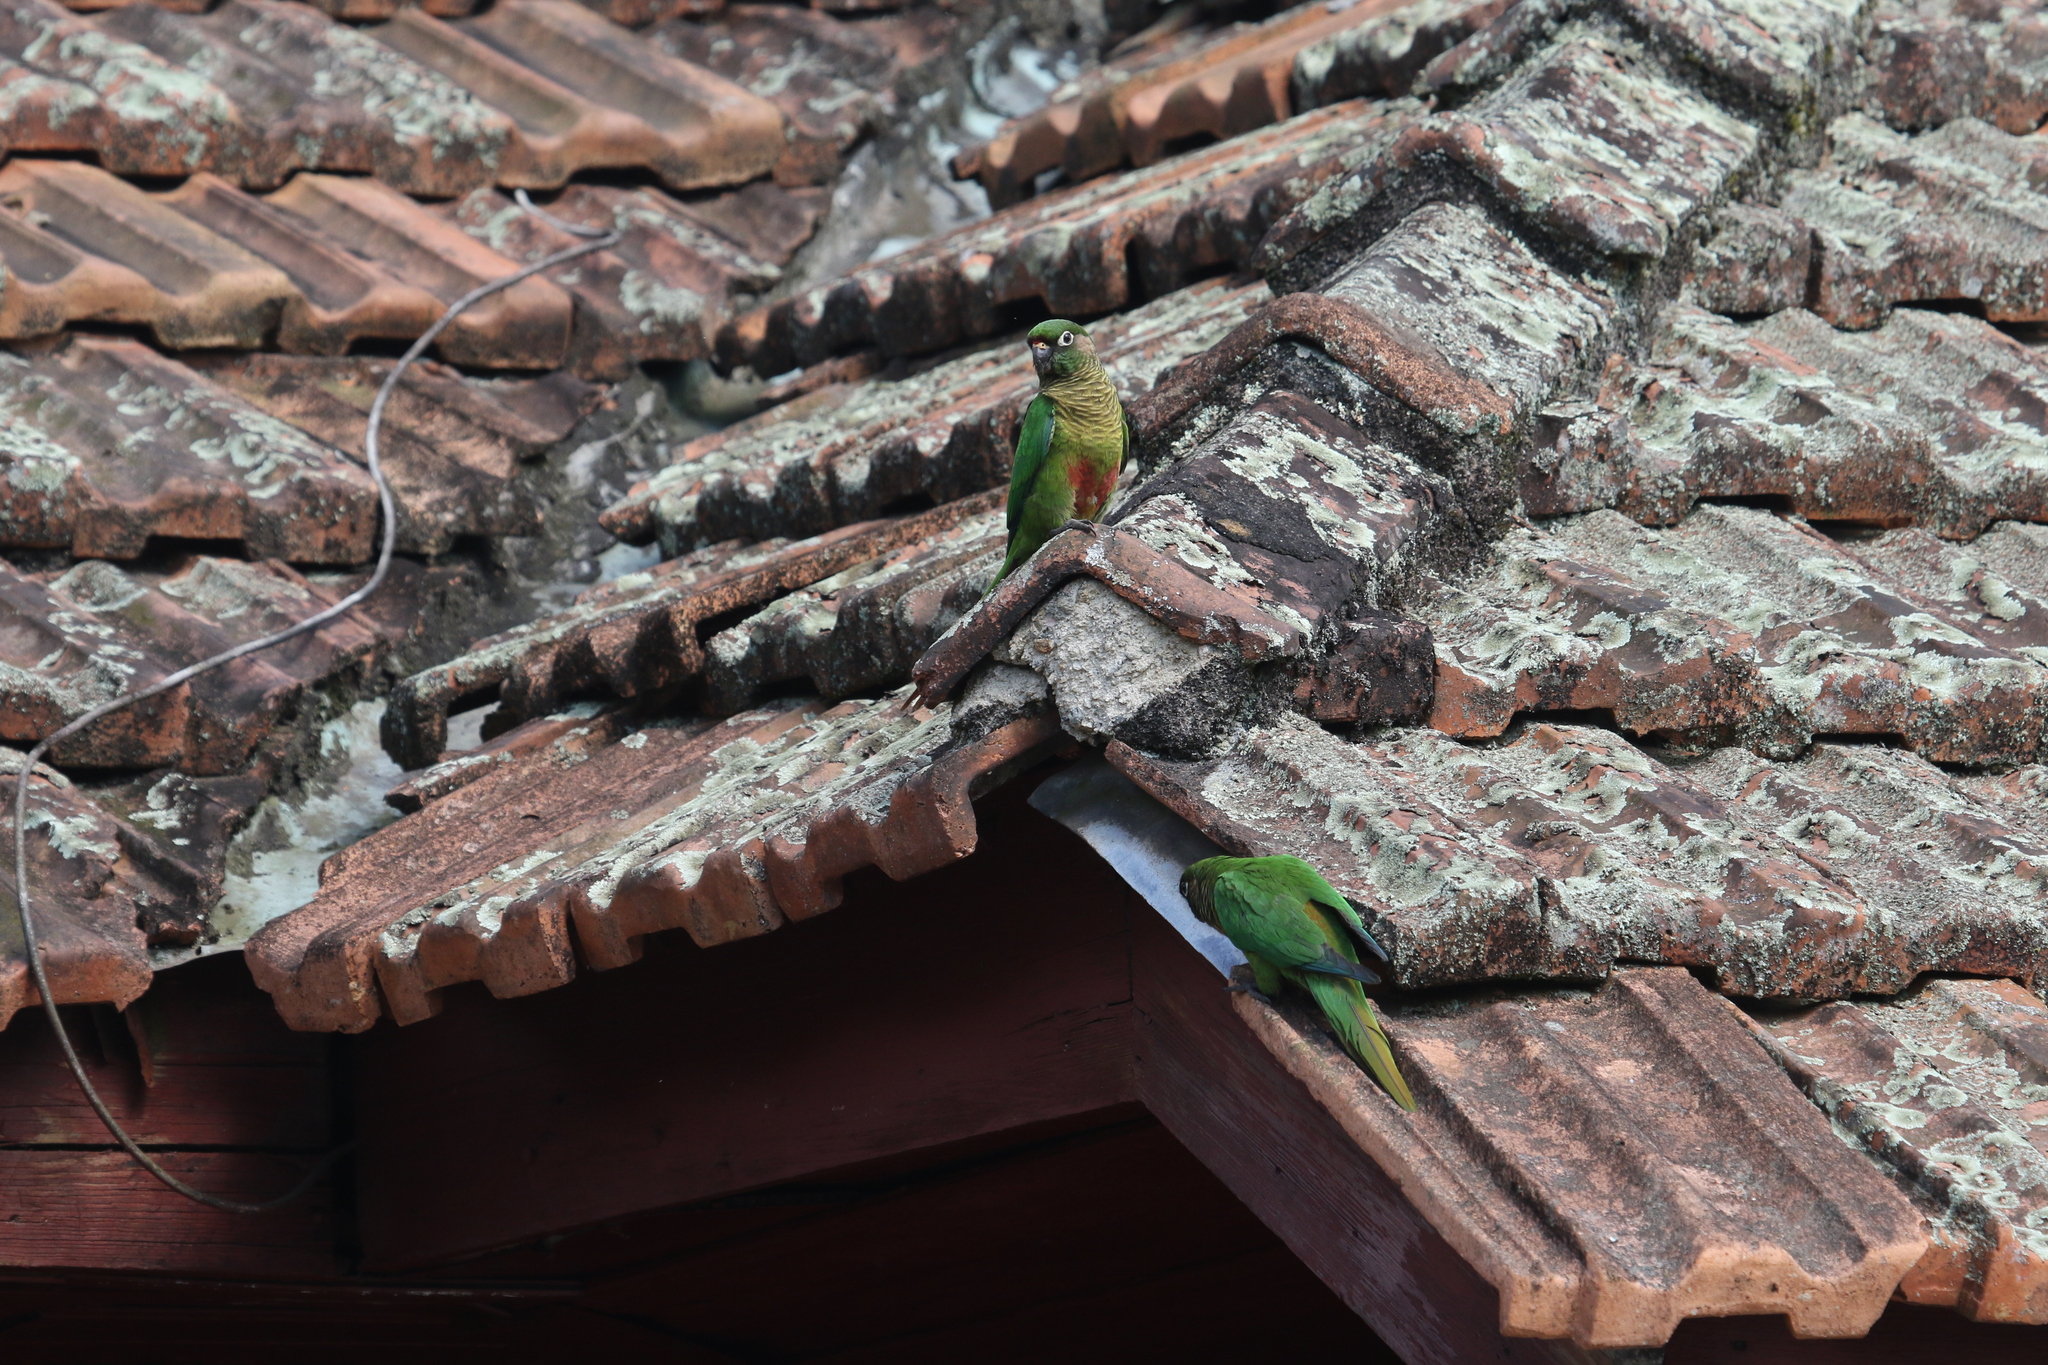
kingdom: Animalia
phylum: Chordata
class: Aves
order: Psittaciformes
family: Psittacidae
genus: Pyrrhura
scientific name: Pyrrhura frontalis
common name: Maroon-bellied parakeet
